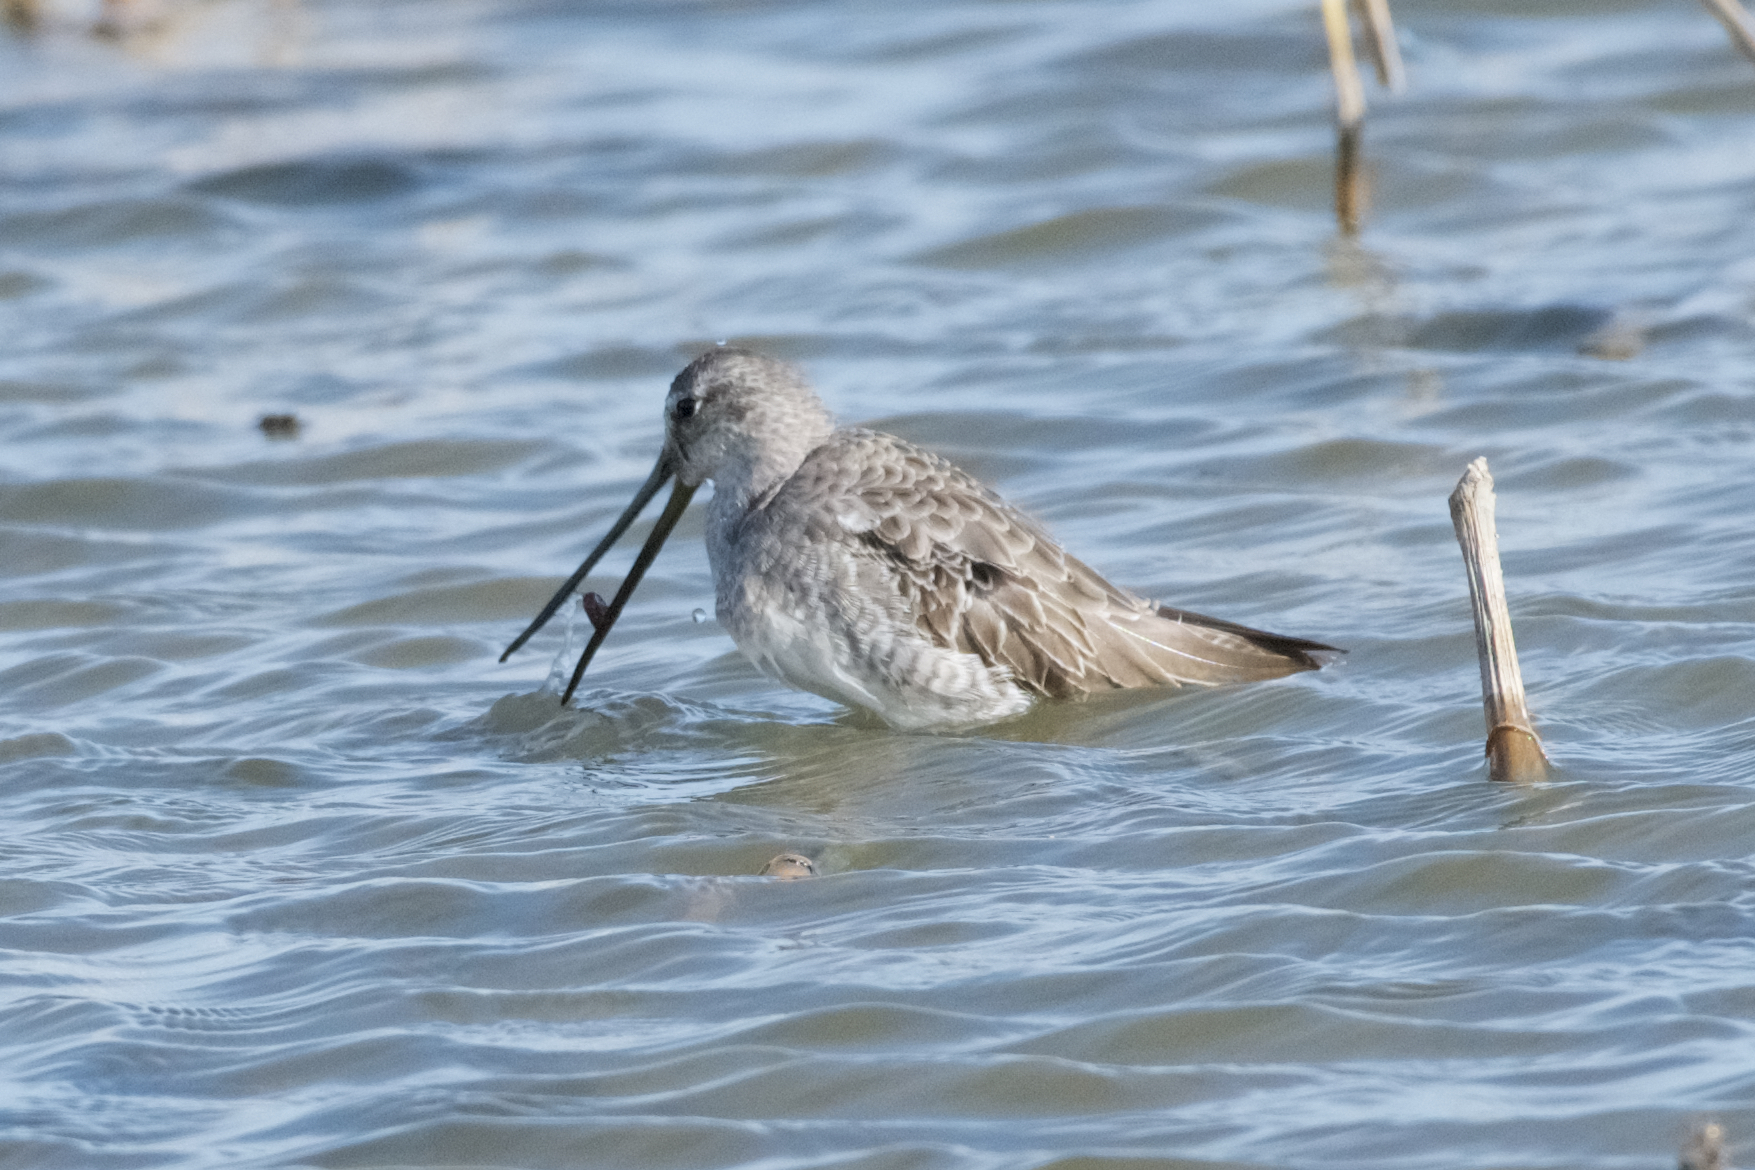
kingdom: Animalia
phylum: Chordata
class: Aves
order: Charadriiformes
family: Scolopacidae
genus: Limnodromus
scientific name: Limnodromus scolopaceus
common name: Long-billed dowitcher
